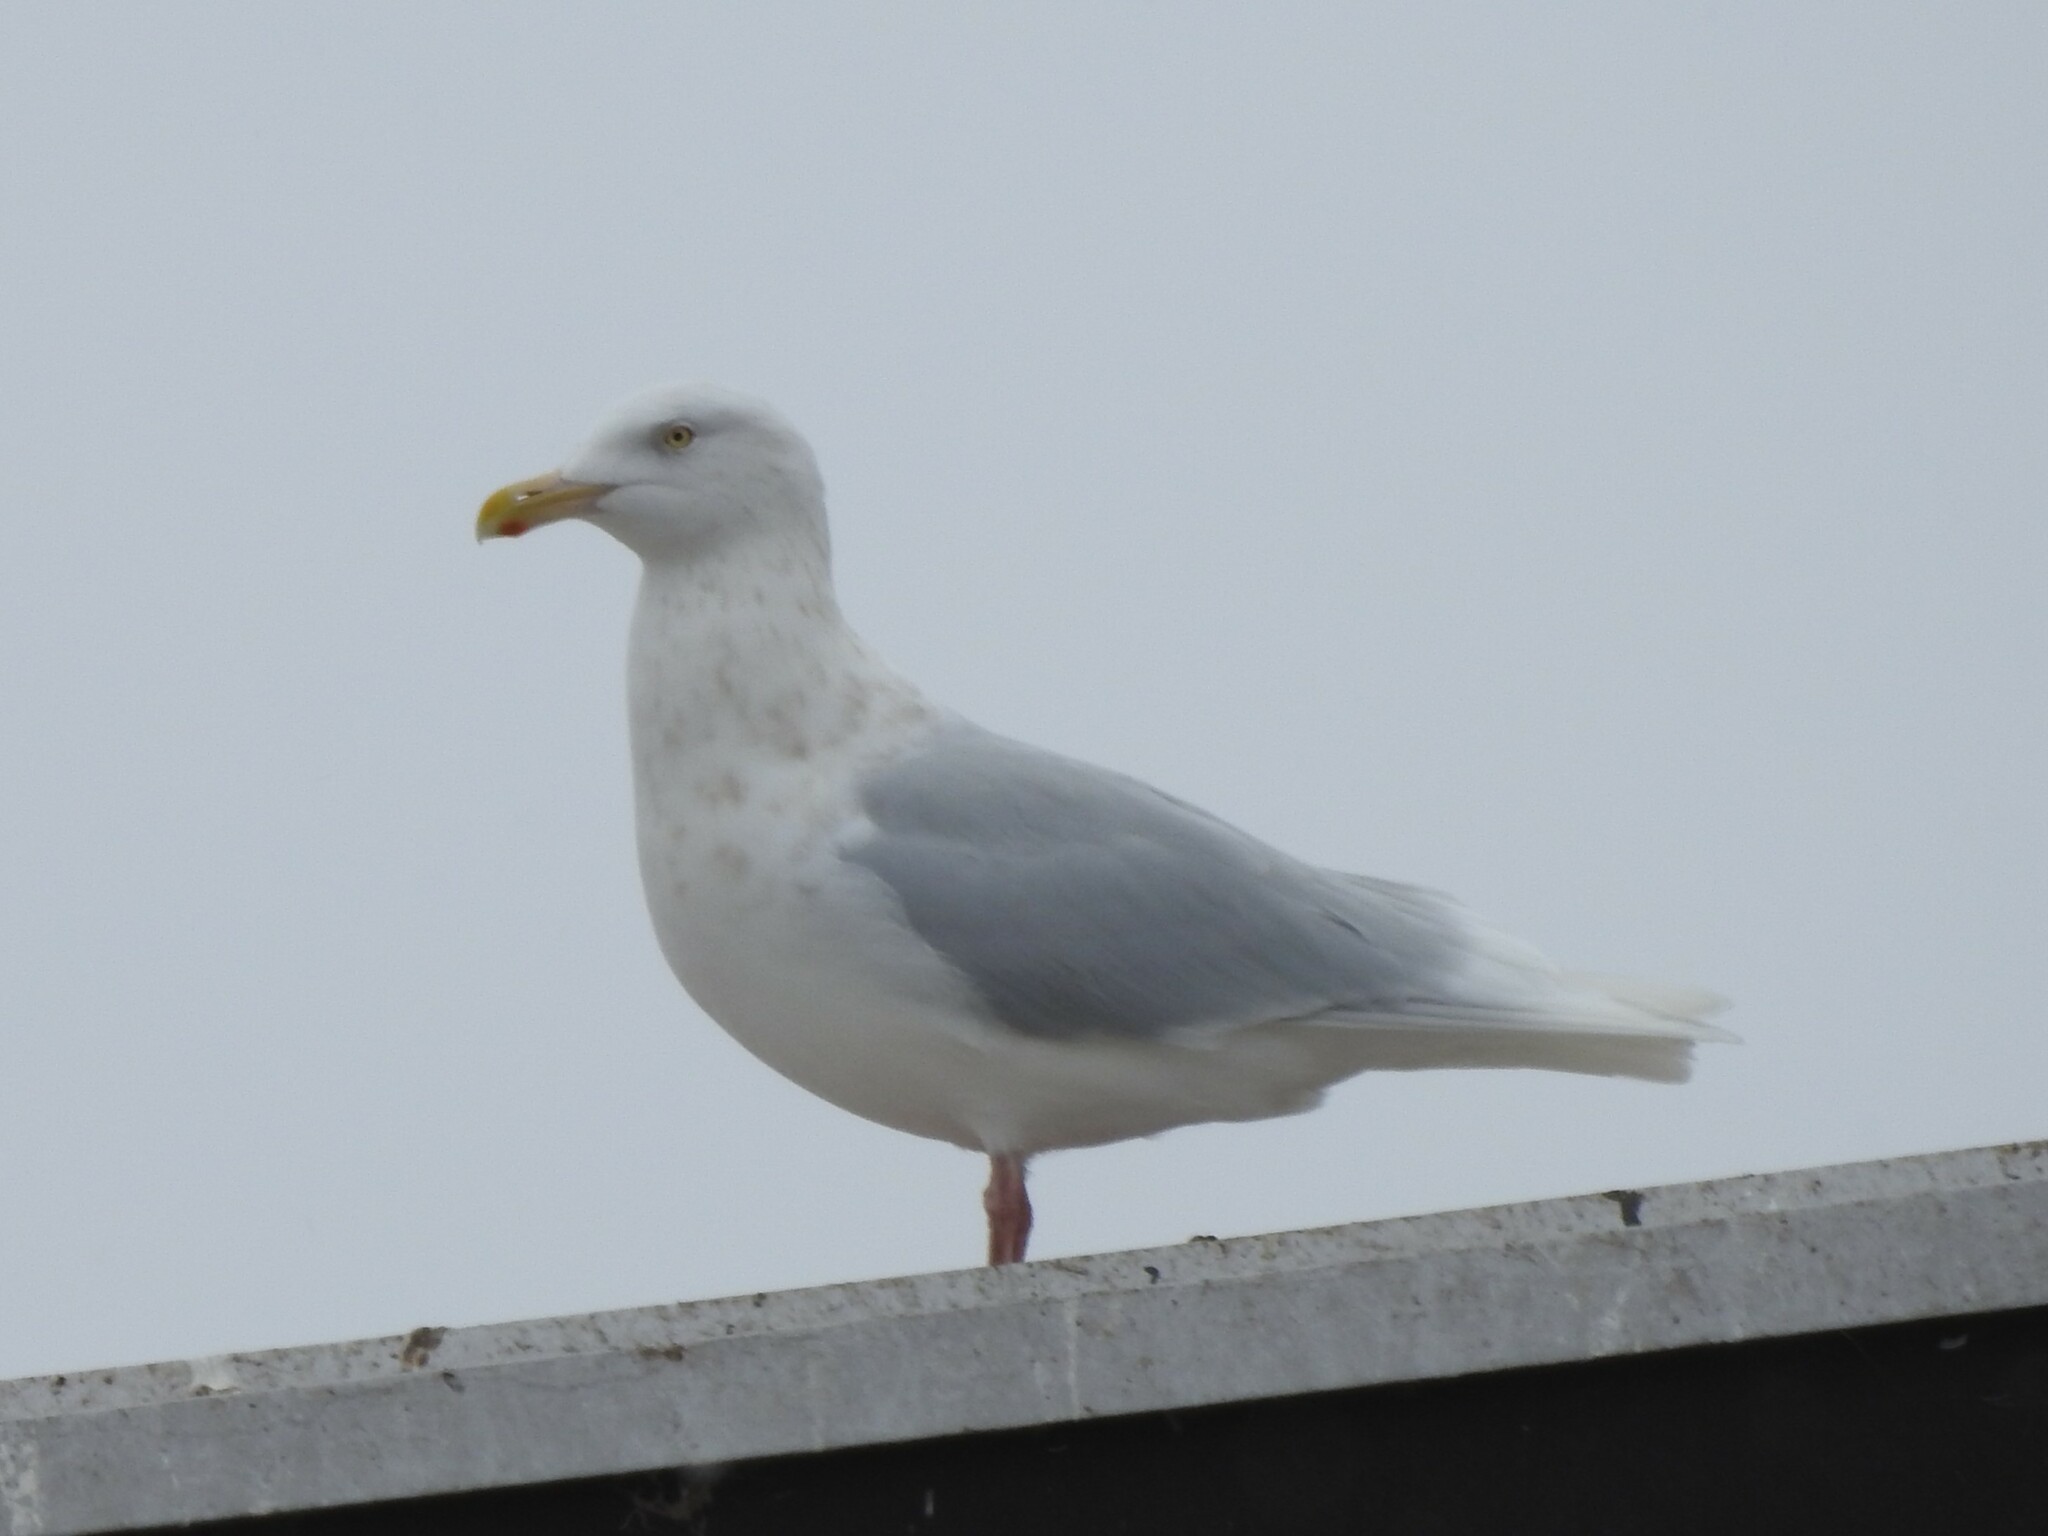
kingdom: Animalia
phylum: Chordata
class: Aves
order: Charadriiformes
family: Laridae
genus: Larus
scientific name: Larus hyperboreus
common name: Glaucous gull
